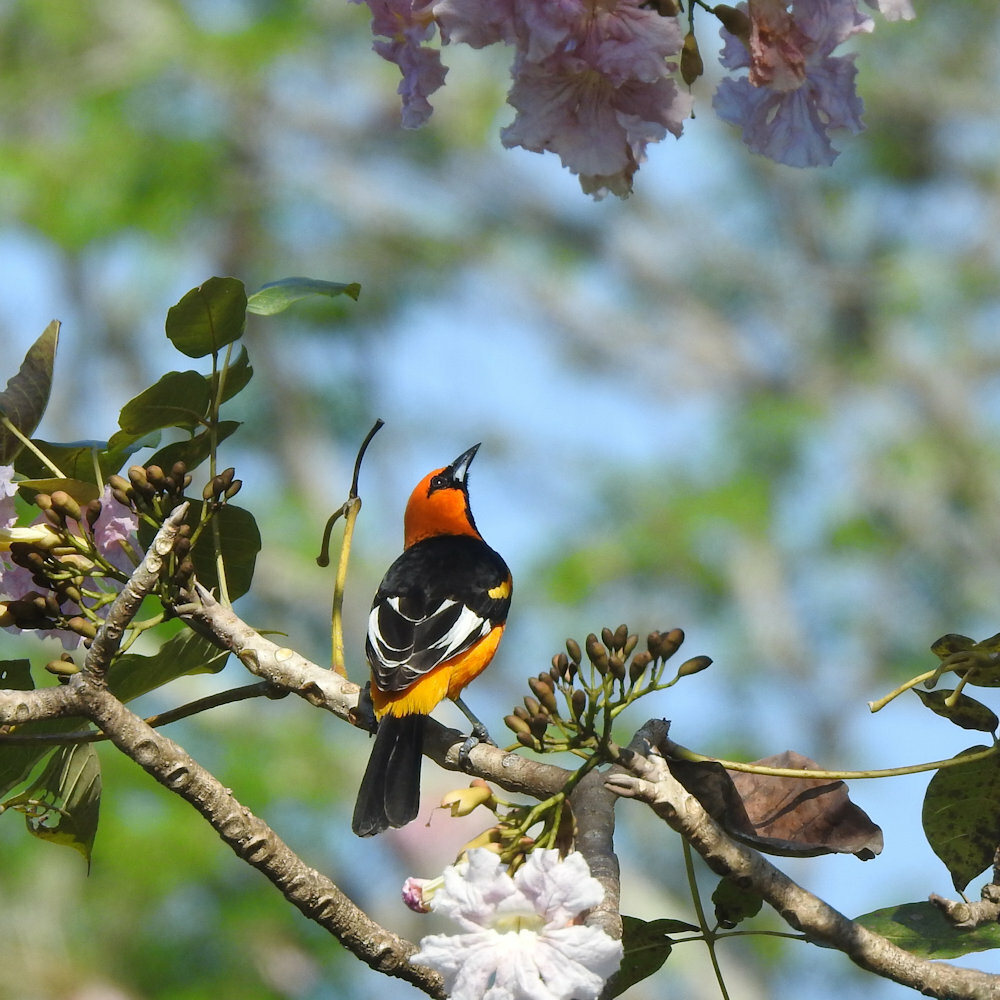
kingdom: Animalia
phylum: Chordata
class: Aves
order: Passeriformes
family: Icteridae
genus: Icterus
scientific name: Icterus pectoralis
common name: Spot-breasted oriole
